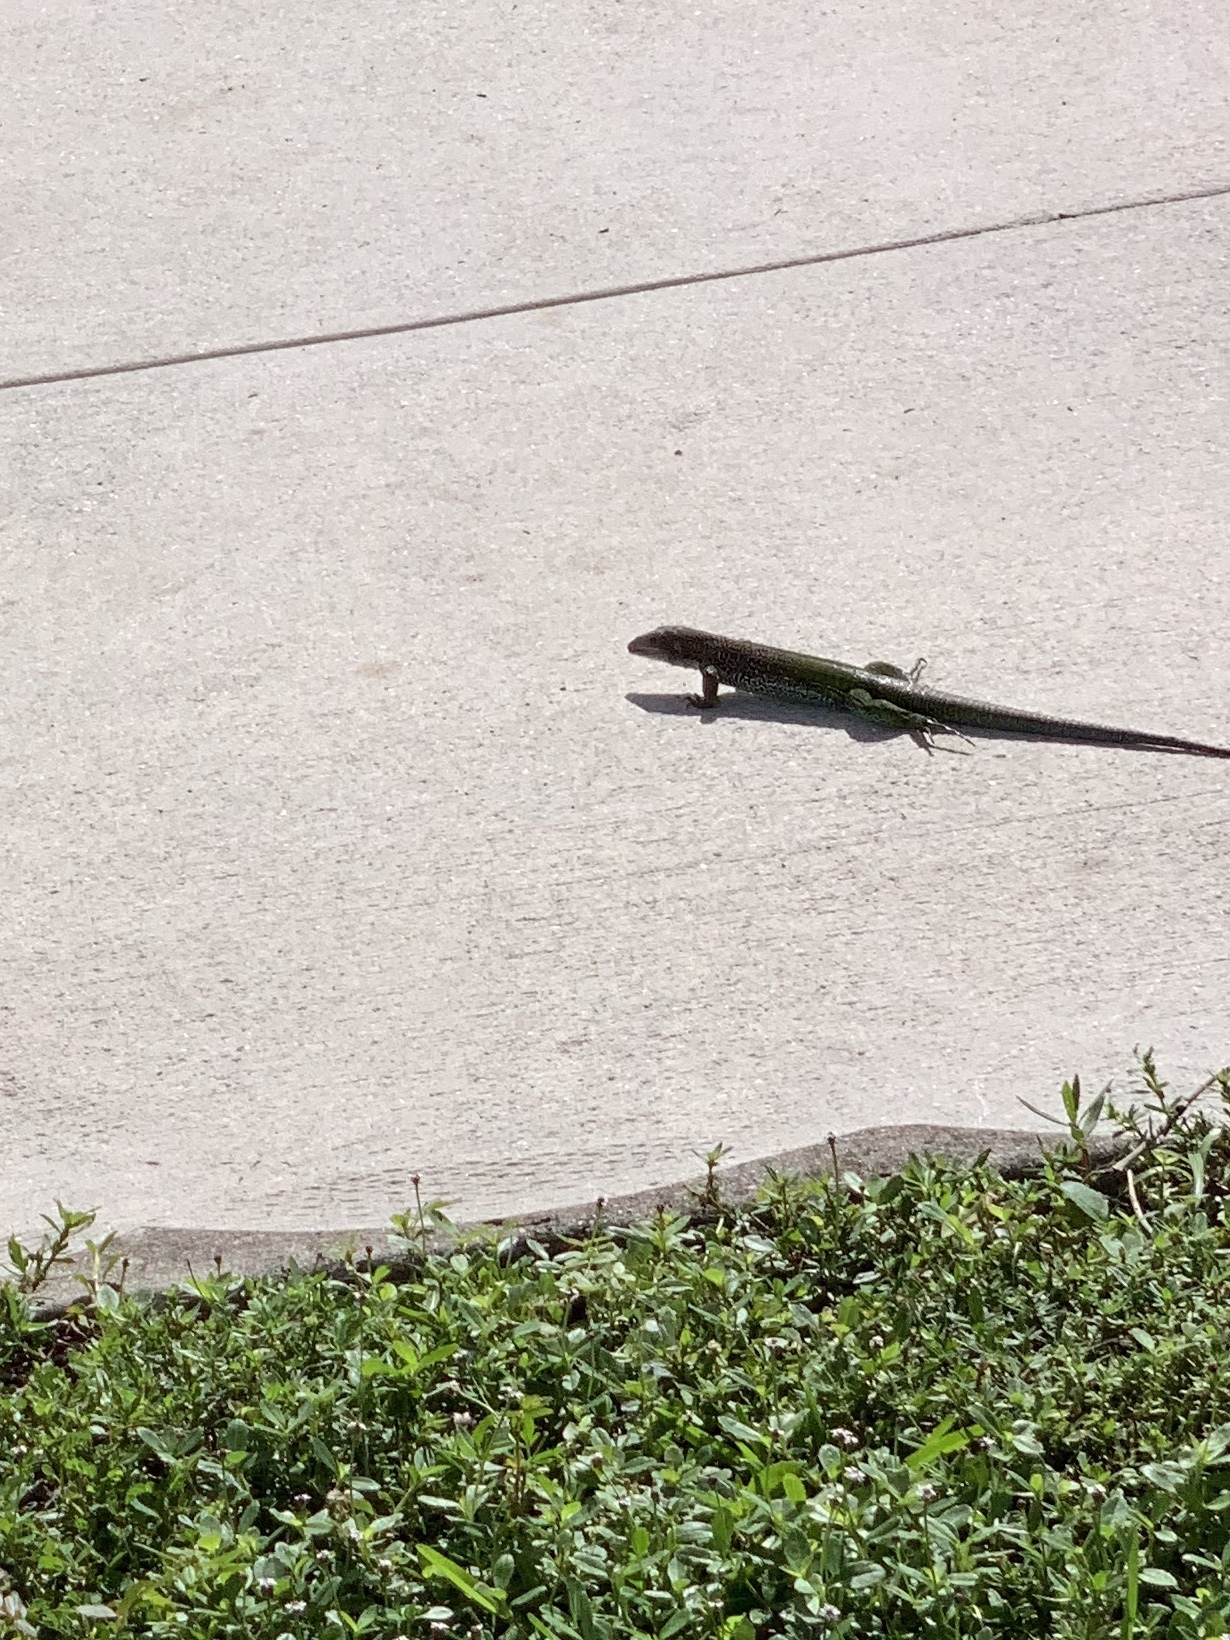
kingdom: Animalia
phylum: Chordata
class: Squamata
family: Teiidae
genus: Ameiva
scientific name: Ameiva ameiva
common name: Giant ameiva
